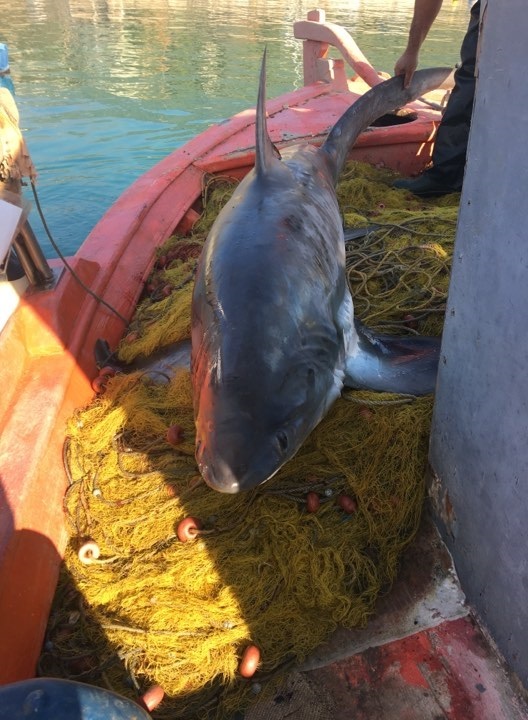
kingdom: Animalia
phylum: Chordata
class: Elasmobranchii
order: Lamniformes
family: Alopiidae
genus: Alopias
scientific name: Alopias vulpinus
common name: Thresher shark
